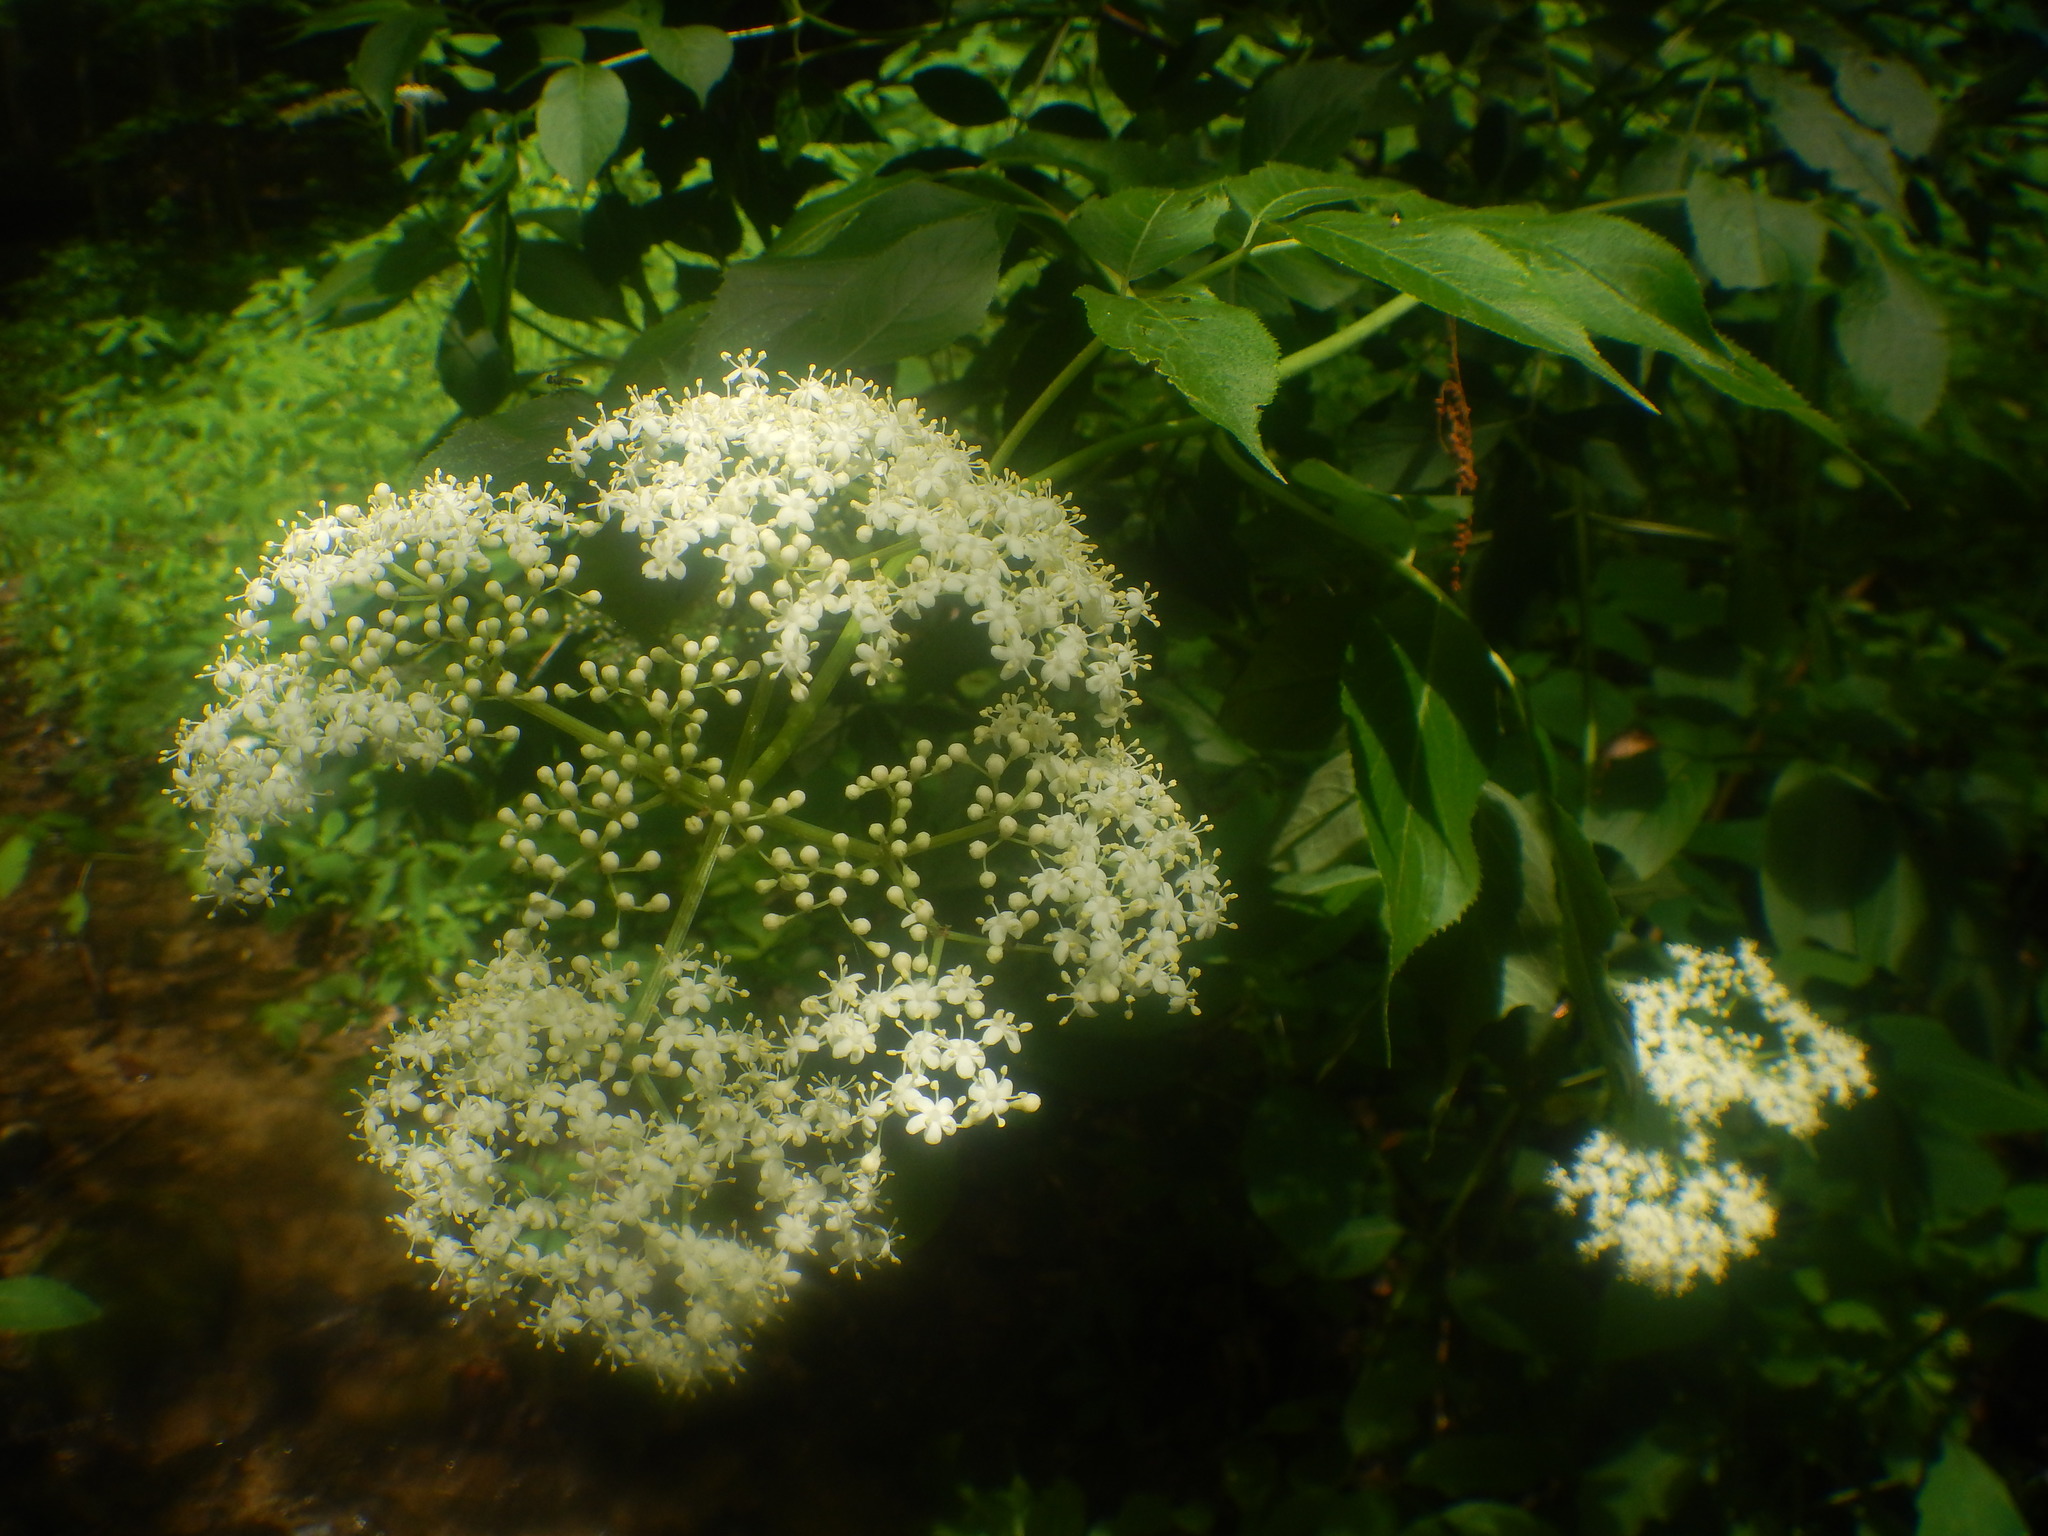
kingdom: Plantae
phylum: Tracheophyta
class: Magnoliopsida
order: Dipsacales
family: Viburnaceae
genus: Sambucus
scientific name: Sambucus canadensis
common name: American elder
